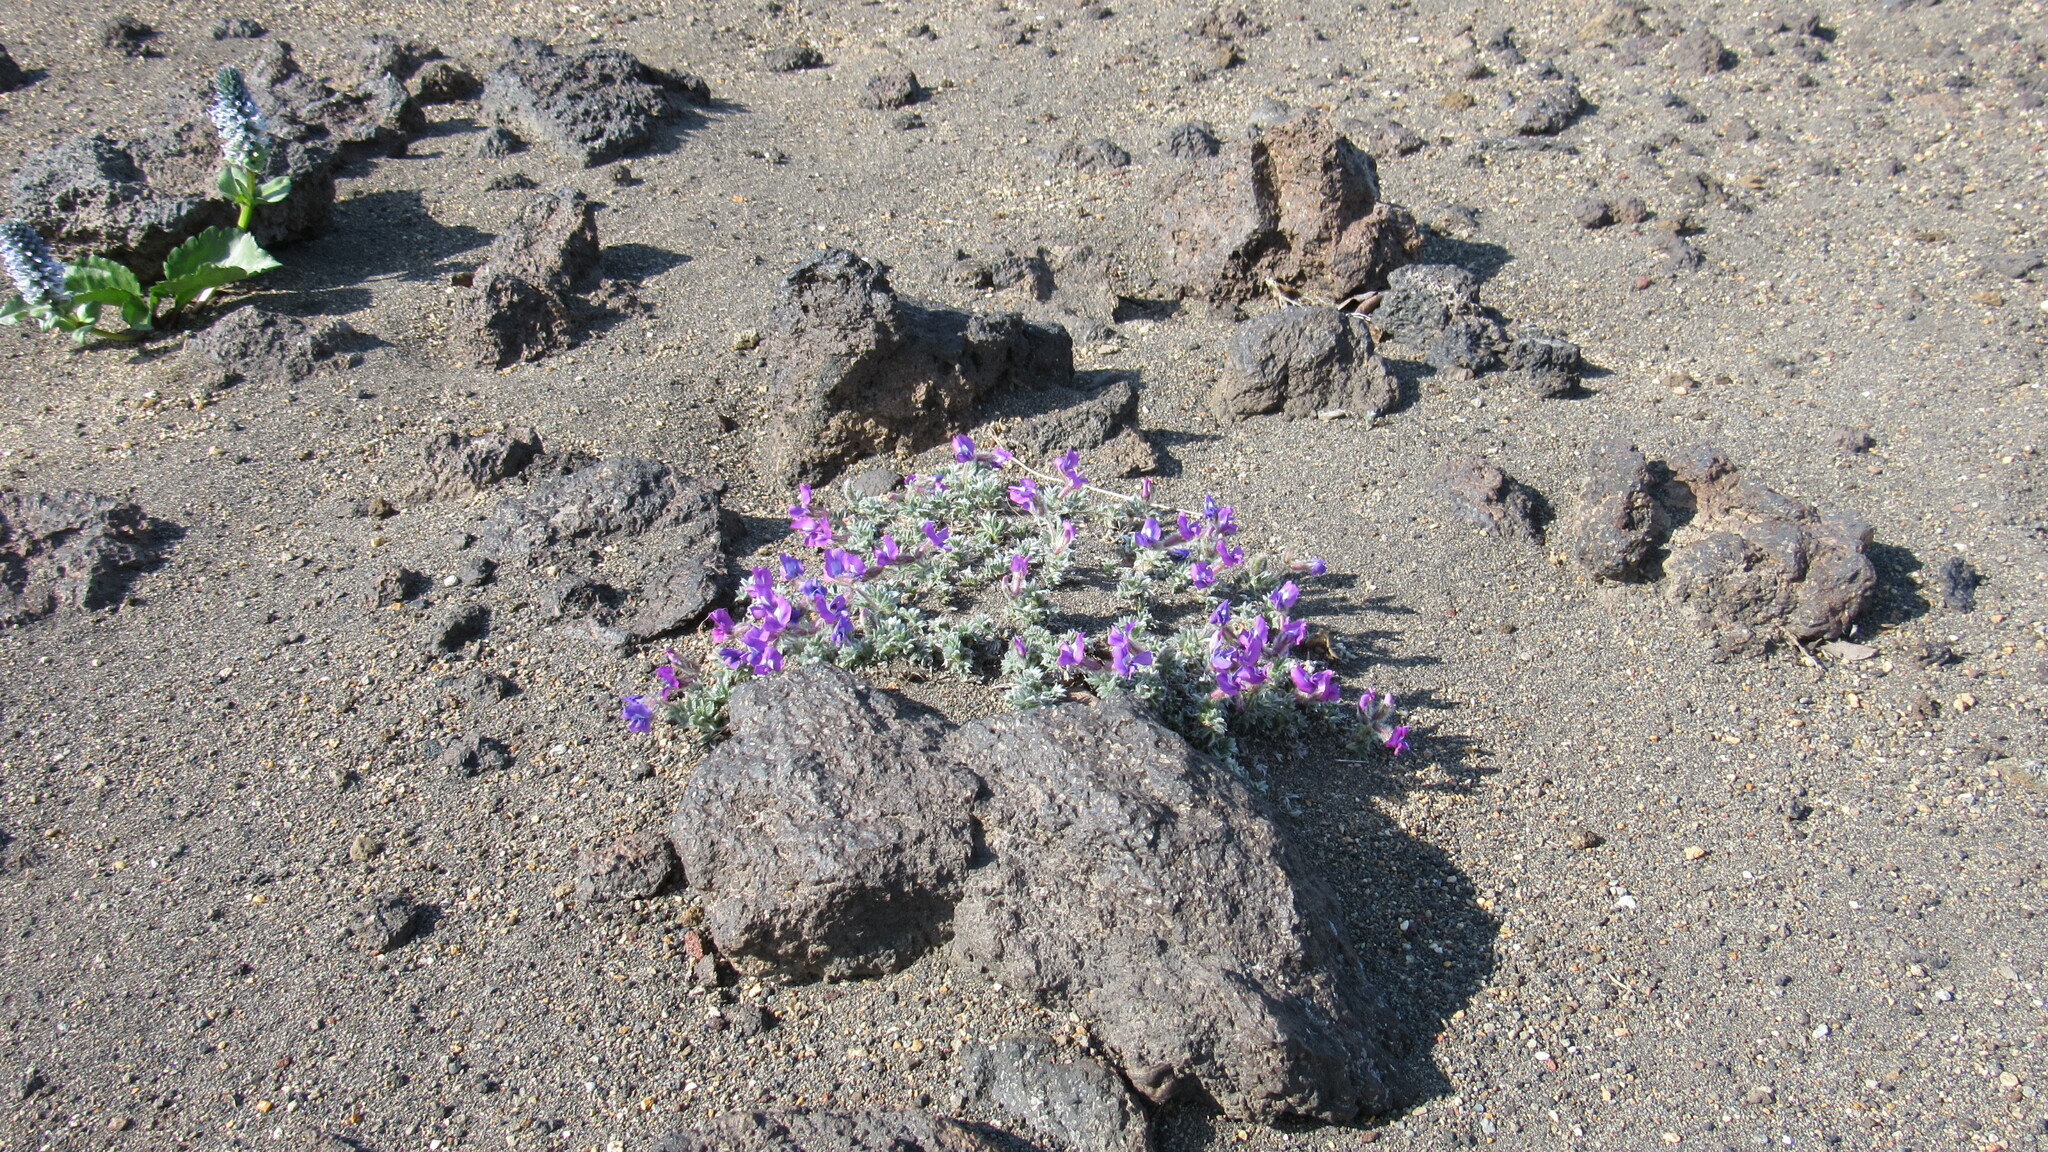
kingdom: Plantae
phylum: Tracheophyta
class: Magnoliopsida
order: Fabales
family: Fabaceae
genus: Oxytropis
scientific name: Oxytropis revoluta
